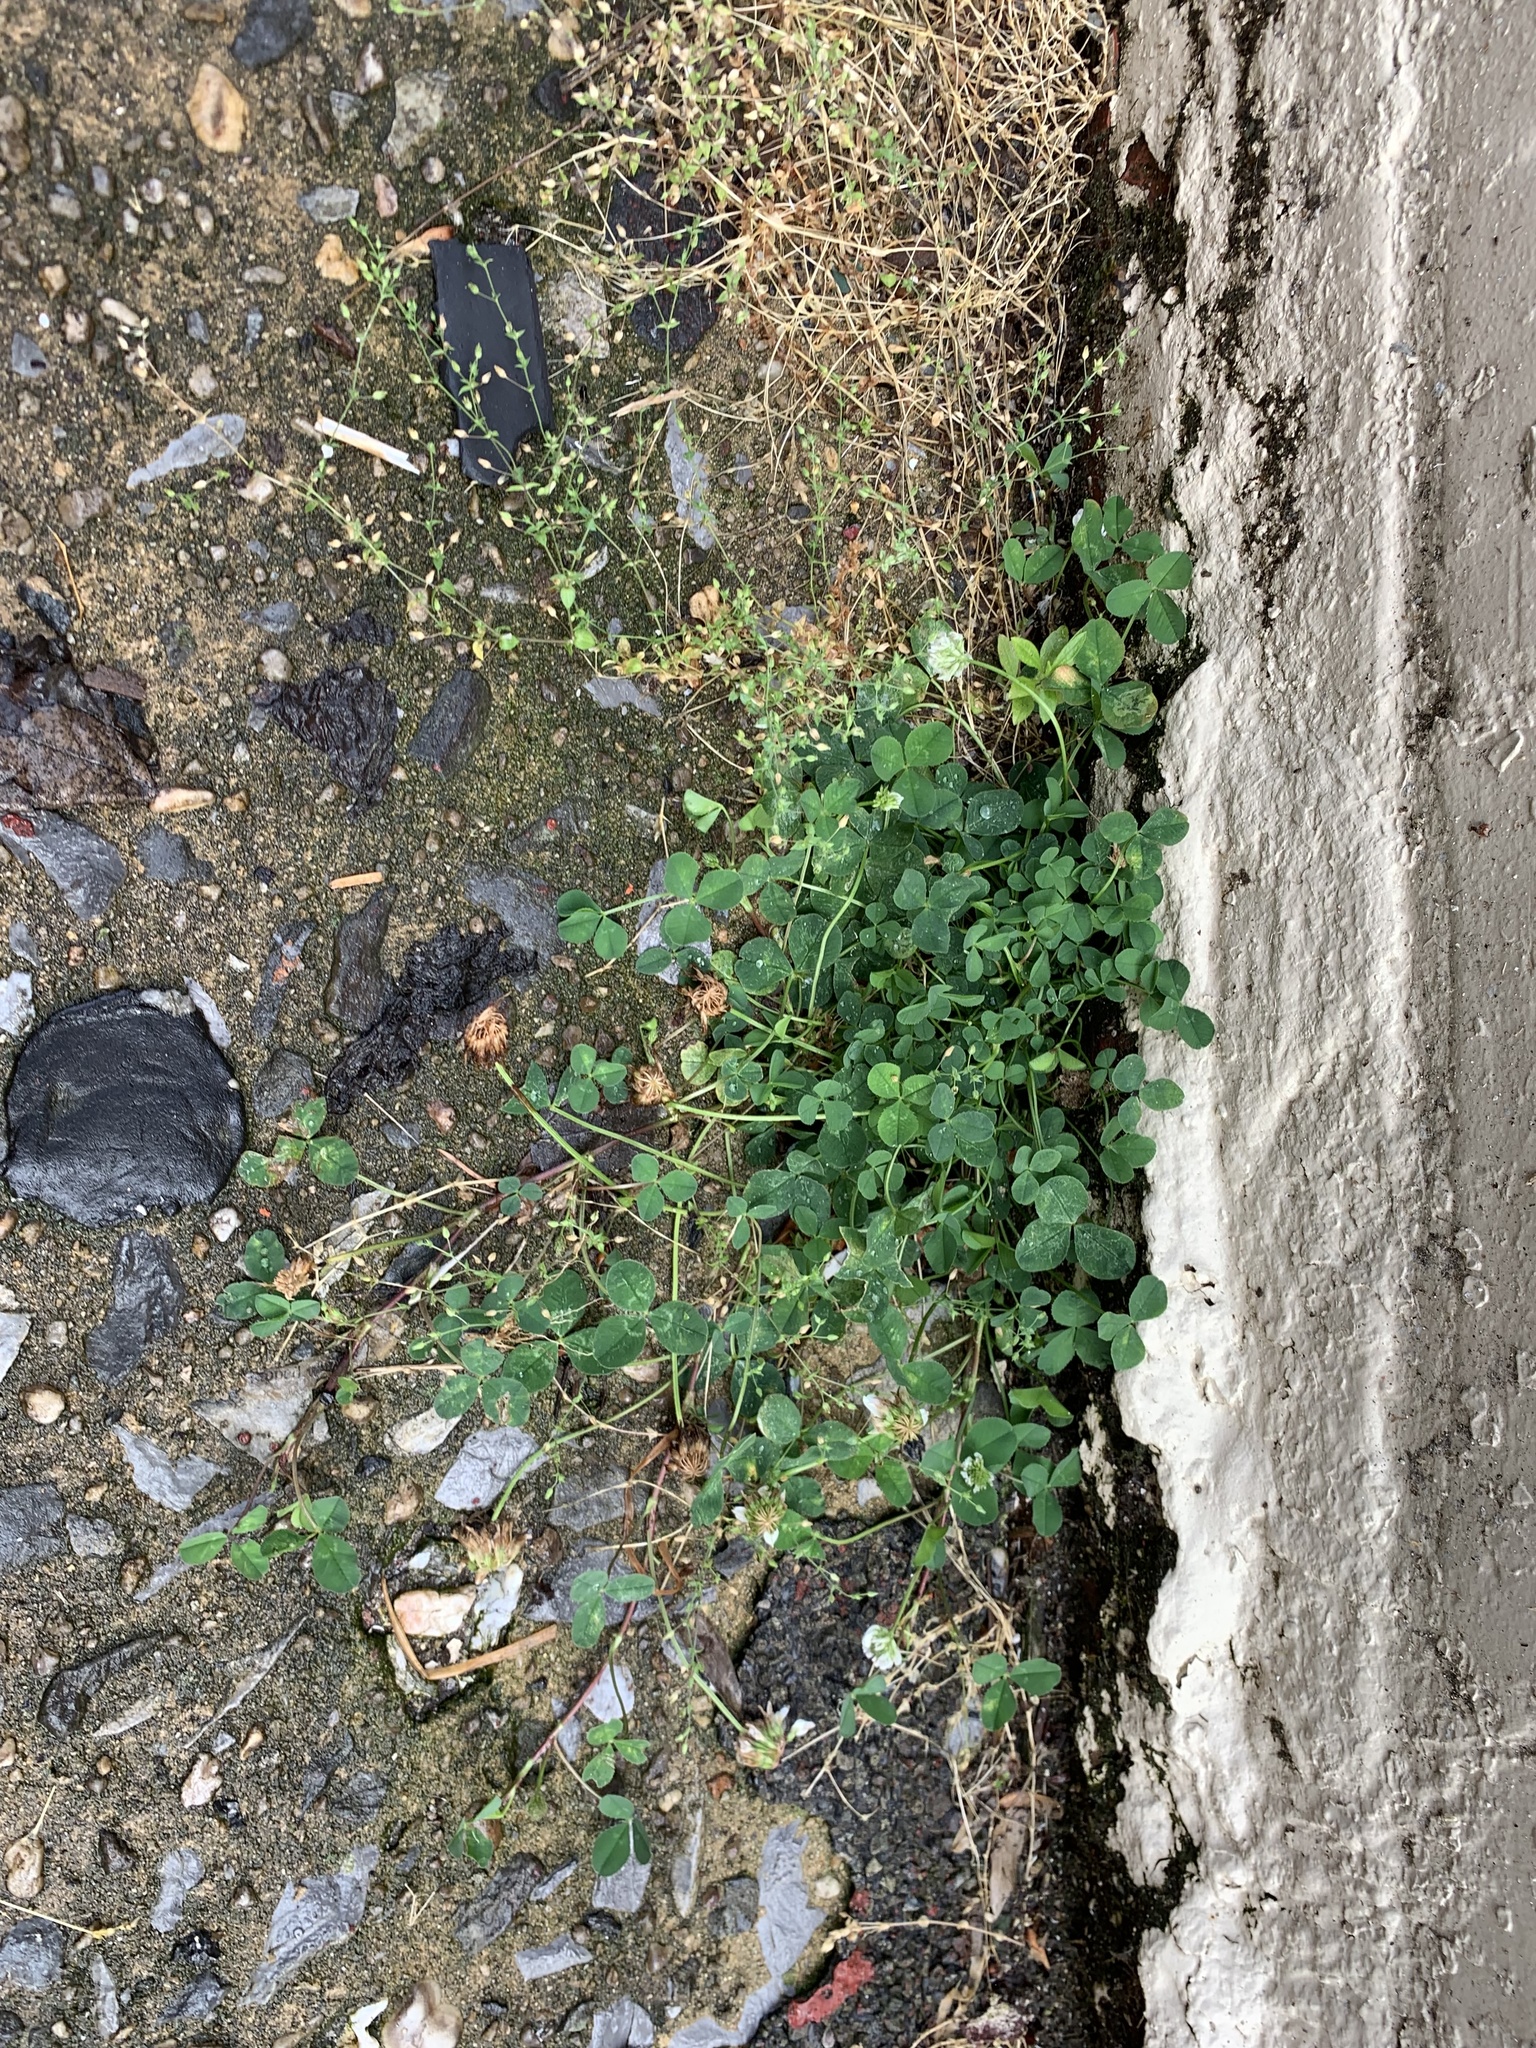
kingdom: Plantae
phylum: Tracheophyta
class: Magnoliopsida
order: Fabales
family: Fabaceae
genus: Trifolium
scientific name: Trifolium repens
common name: White clover
